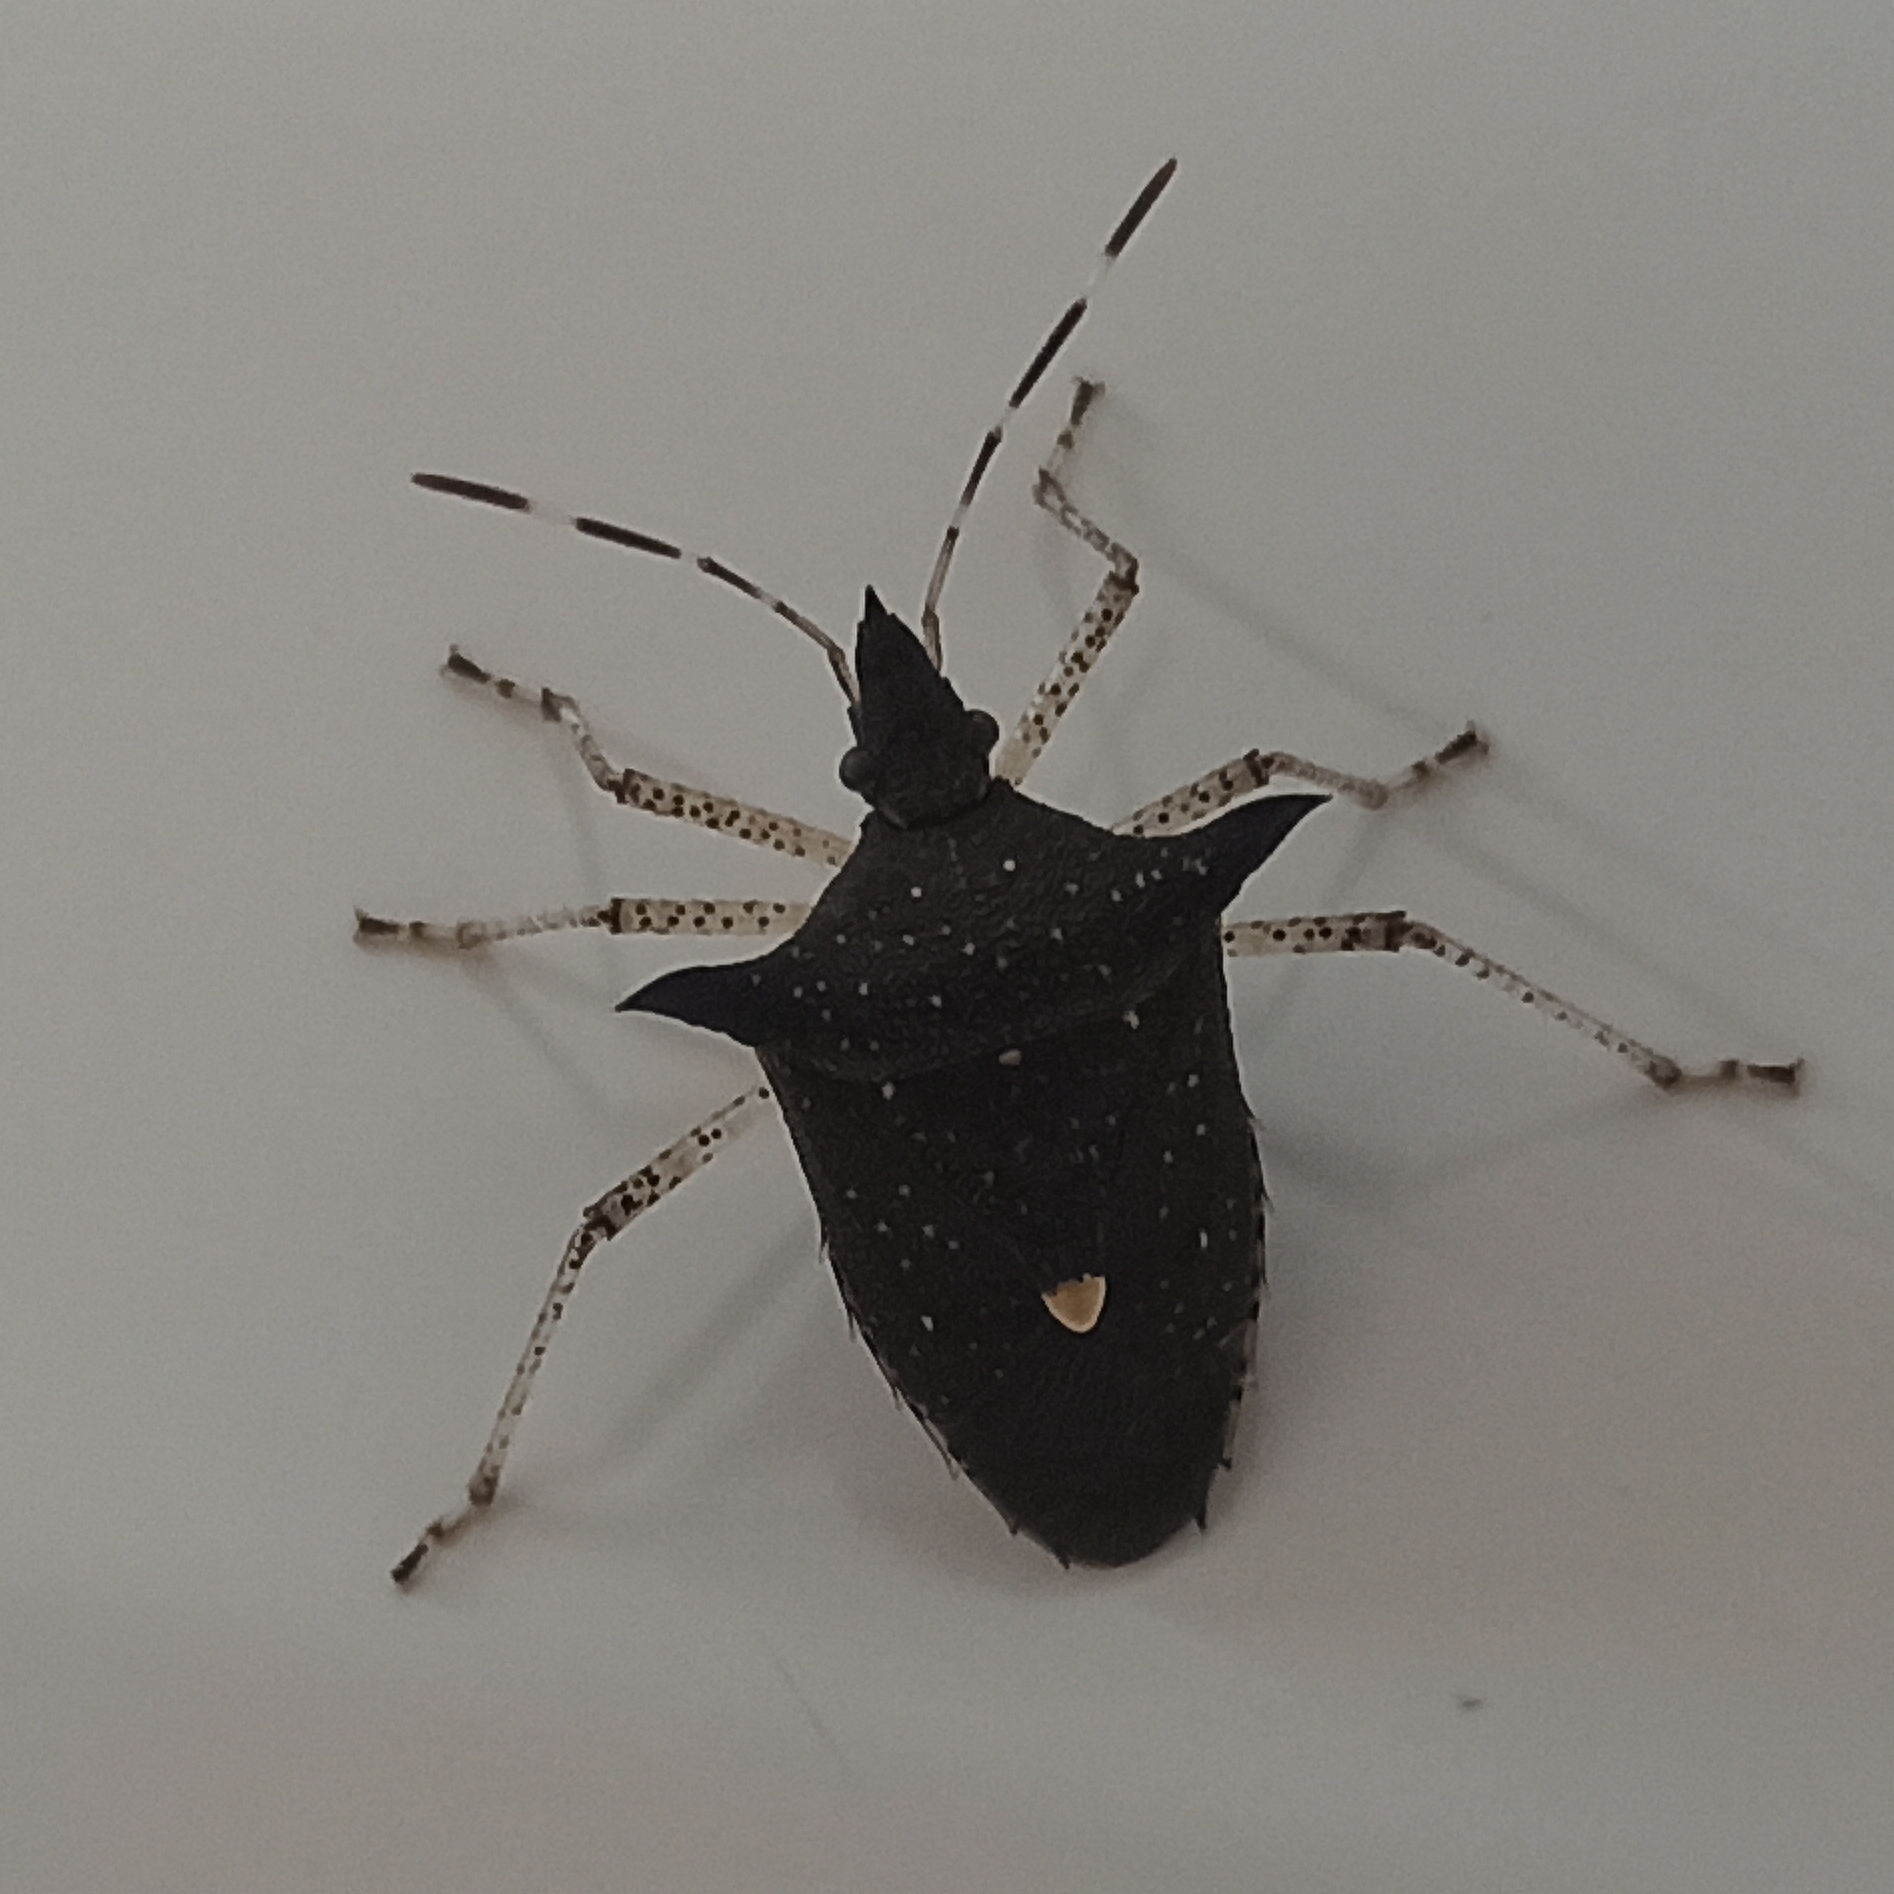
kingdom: Animalia
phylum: Arthropoda
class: Insecta
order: Hemiptera
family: Pentatomidae
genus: Proxys
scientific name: Proxys albopunctulatus
